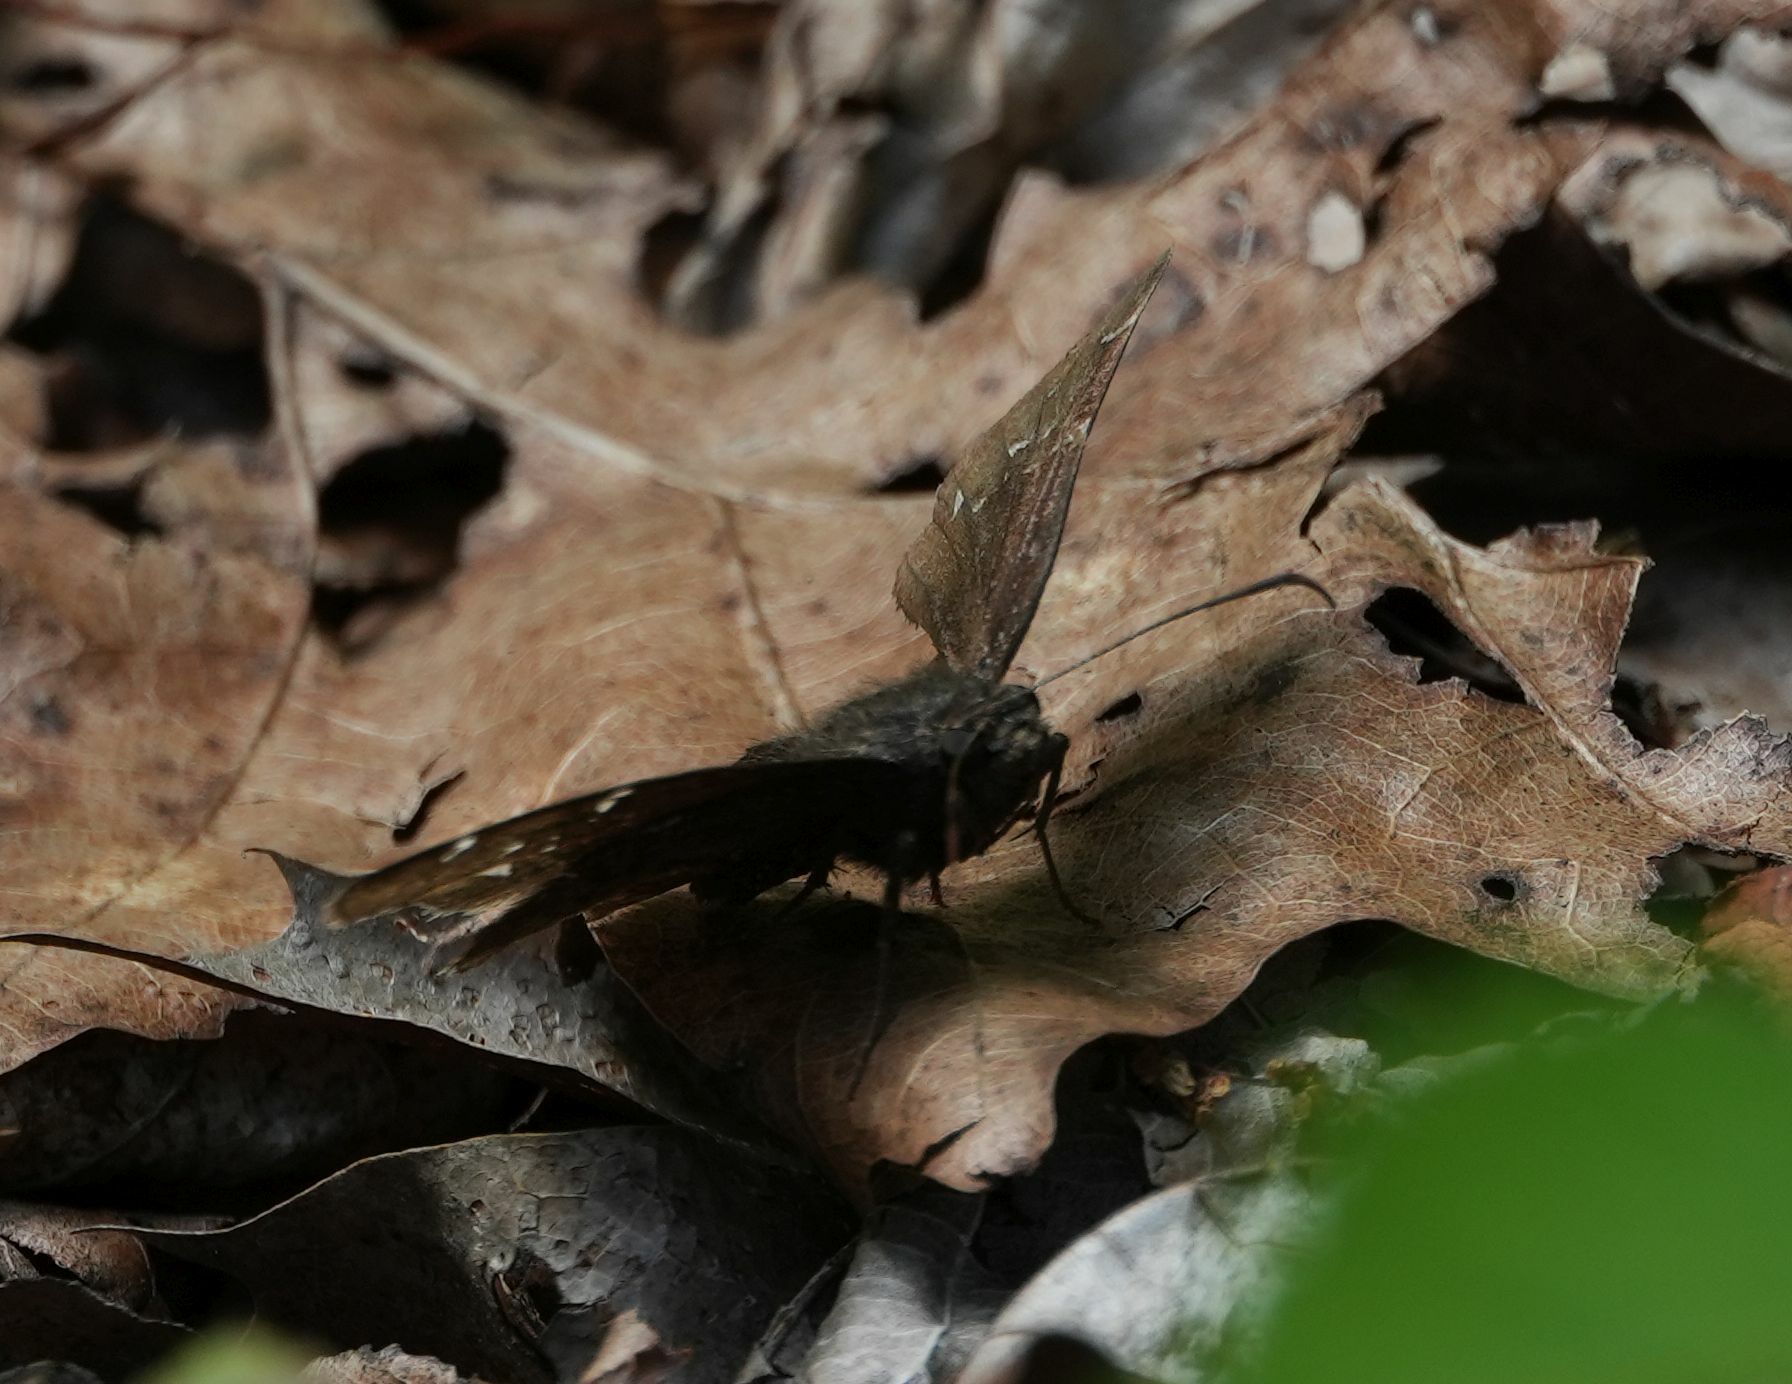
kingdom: Animalia
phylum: Arthropoda
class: Insecta
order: Lepidoptera
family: Hesperiidae
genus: Thorybes
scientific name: Thorybes pylades
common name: Northern cloudywing
